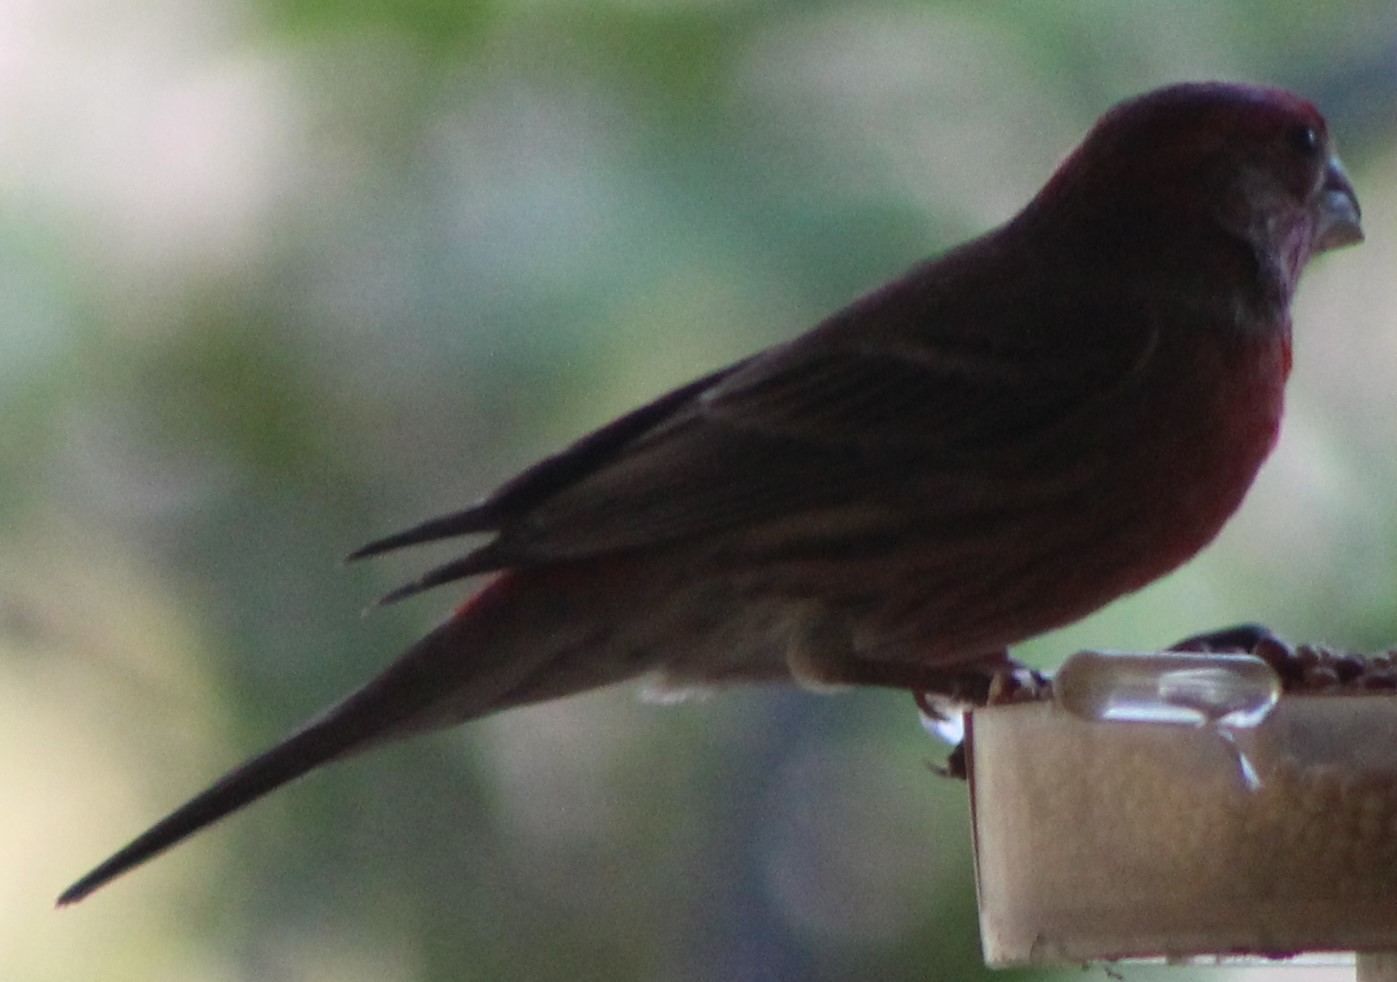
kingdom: Animalia
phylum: Chordata
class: Aves
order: Passeriformes
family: Fringillidae
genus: Haemorhous
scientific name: Haemorhous mexicanus
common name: House finch
